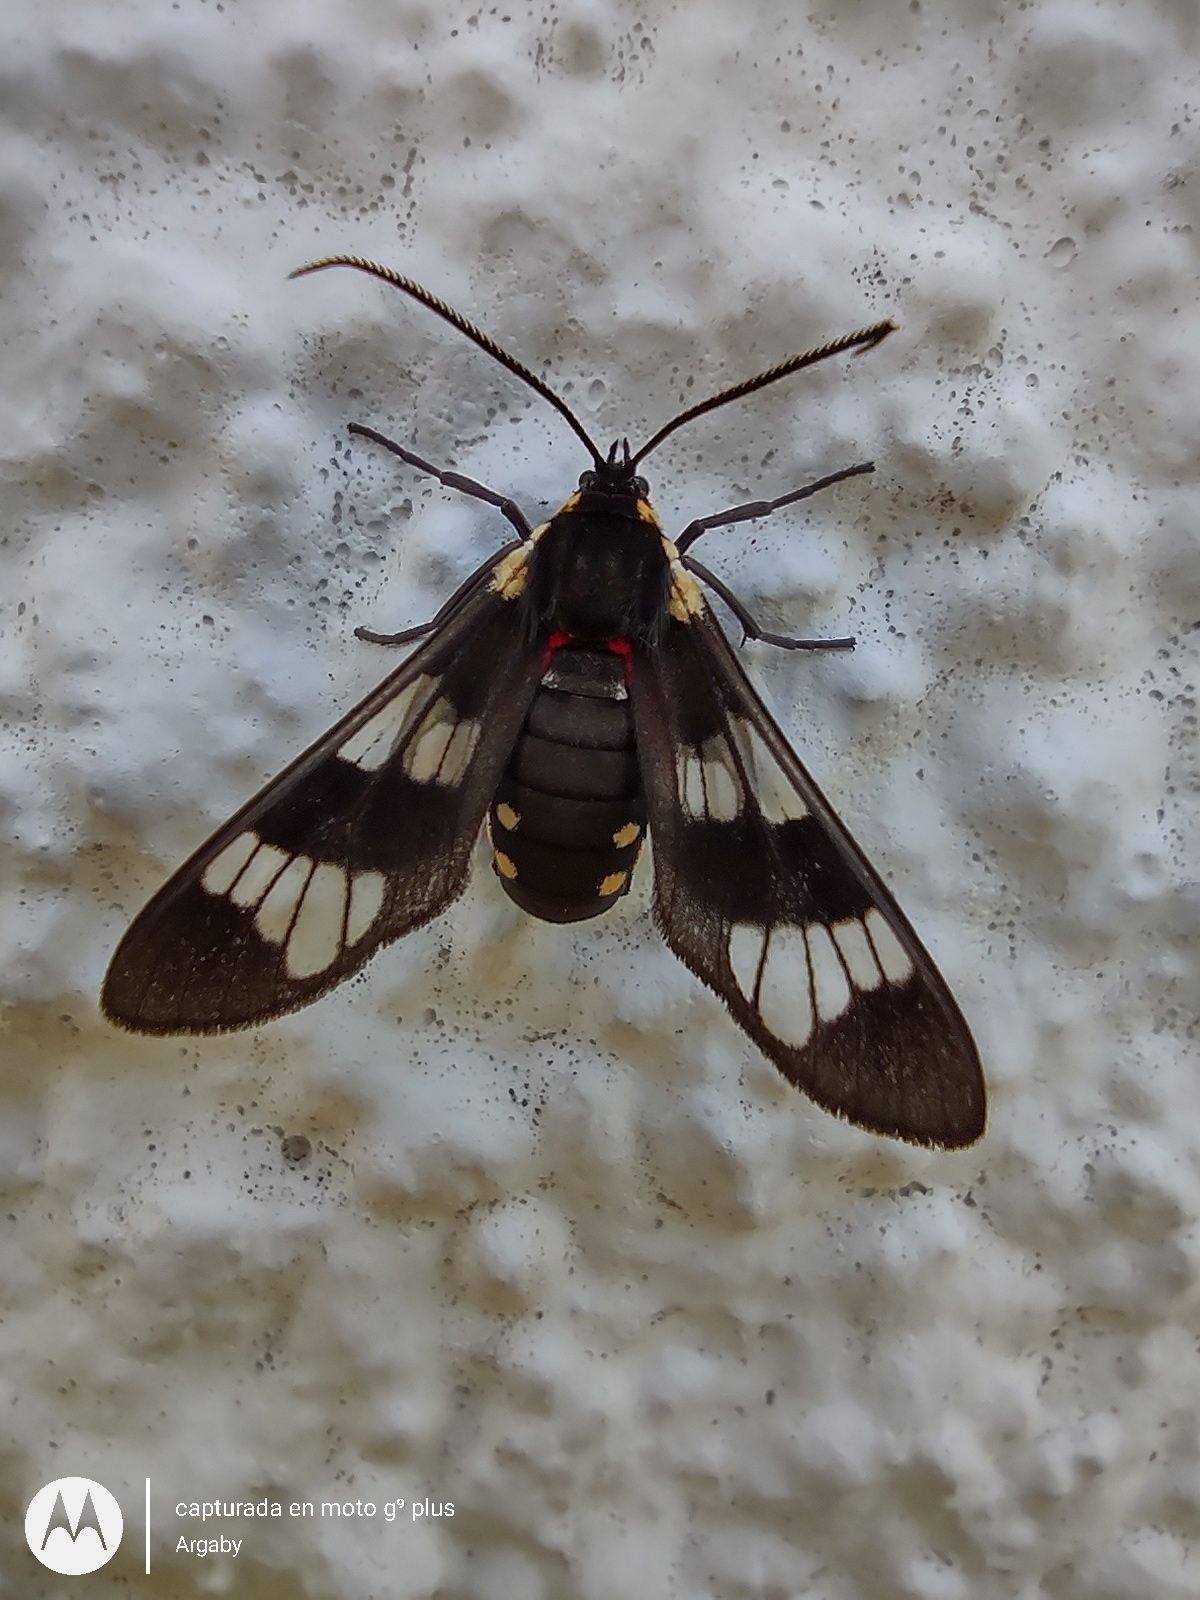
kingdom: Animalia
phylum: Arthropoda
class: Insecta
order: Lepidoptera
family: Erebidae
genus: Eurata
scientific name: Eurata hermione
